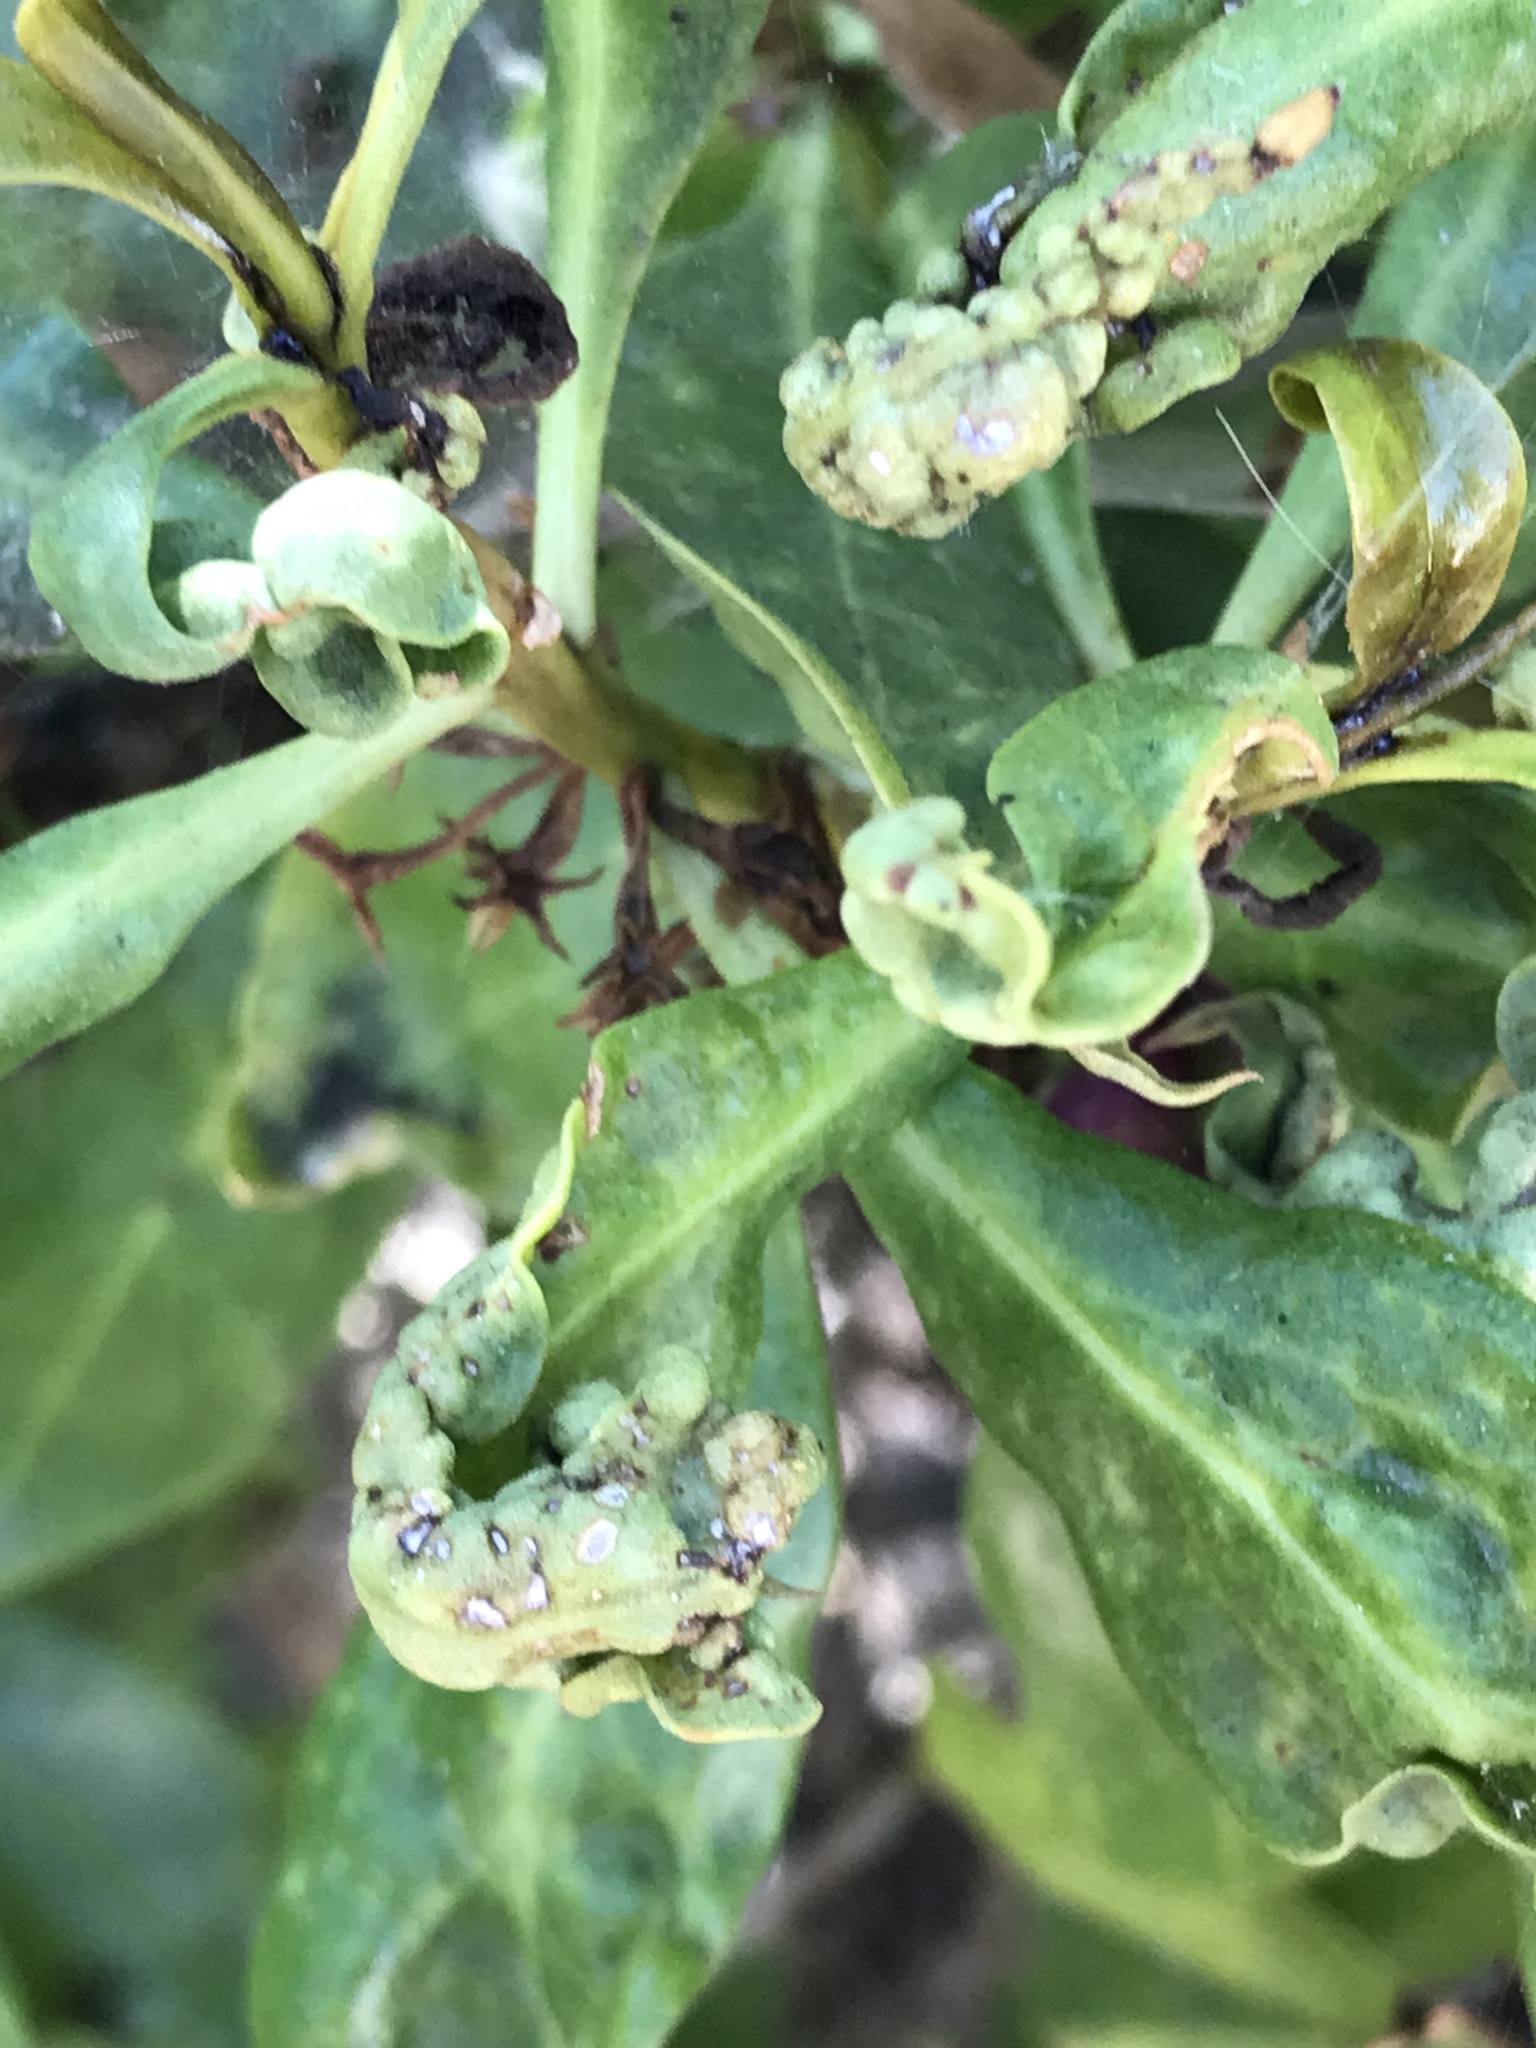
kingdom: Animalia
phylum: Arthropoda
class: Insecta
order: Thysanoptera
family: Phlaeothripidae
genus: Klambothrips
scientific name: Klambothrips myopori
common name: Myoporum thrips
